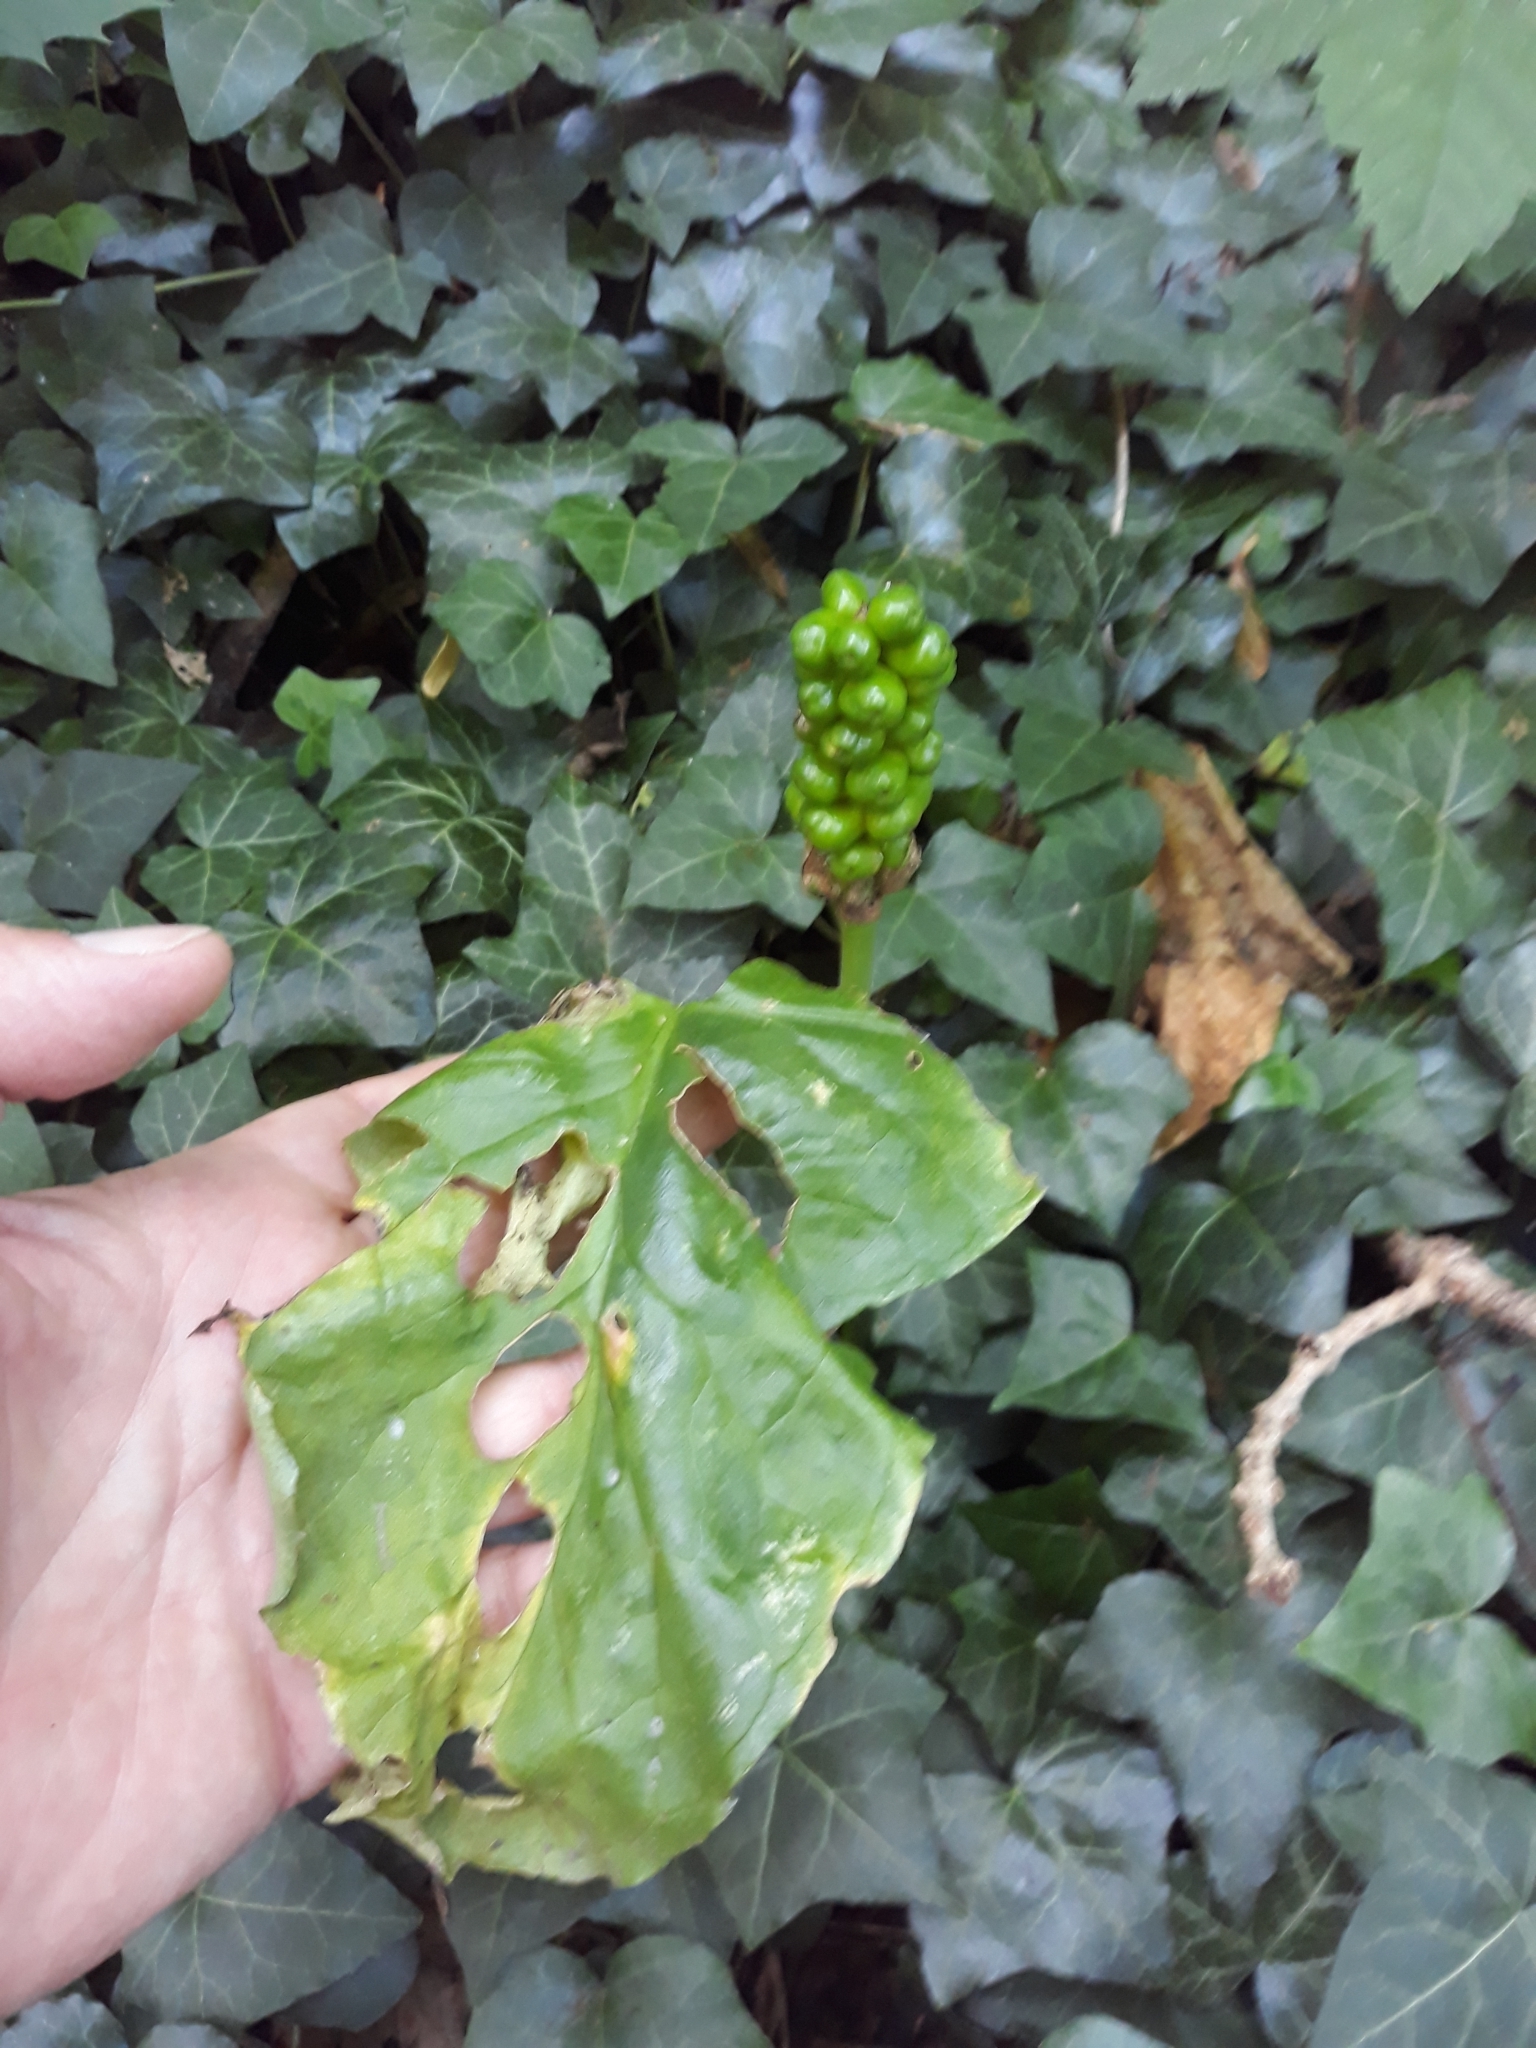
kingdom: Plantae
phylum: Tracheophyta
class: Liliopsida
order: Alismatales
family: Araceae
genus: Arum
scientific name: Arum maculatum
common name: Lords-and-ladies
